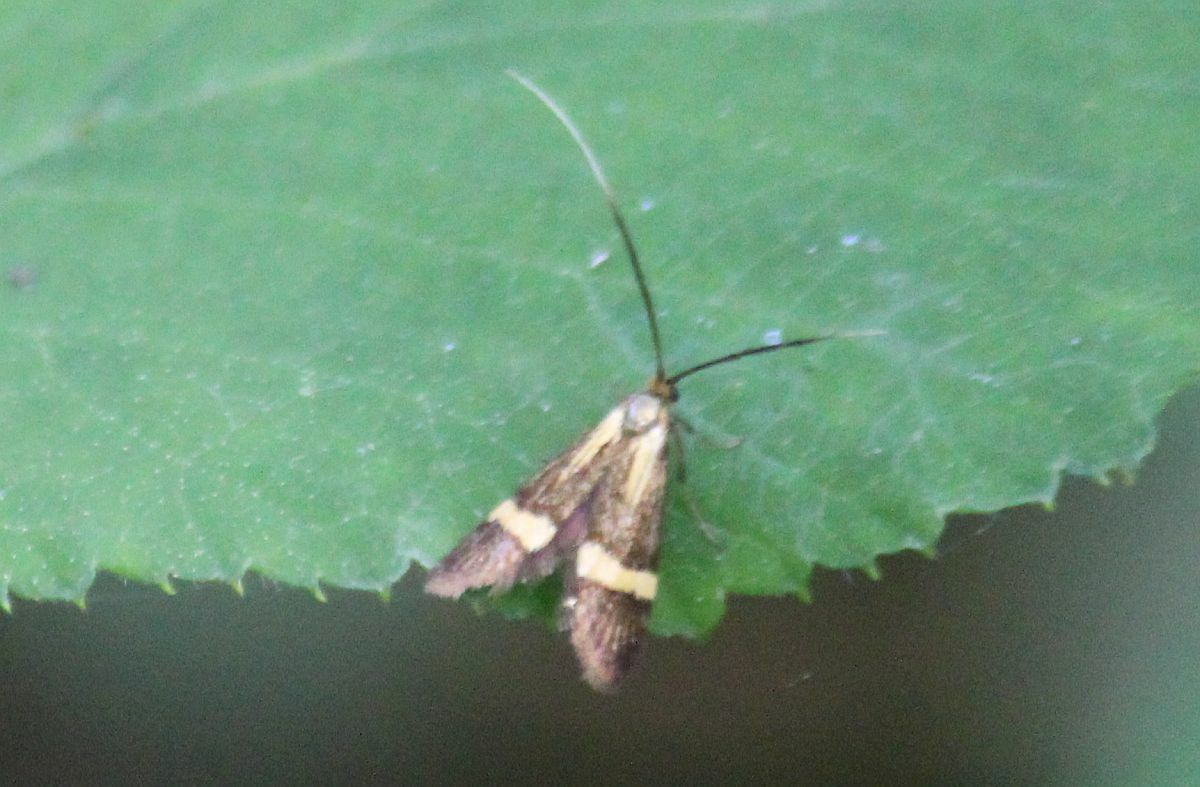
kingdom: Animalia
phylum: Arthropoda
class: Insecta
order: Lepidoptera
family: Adelidae
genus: Nemophora
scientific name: Nemophora degeerella
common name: Yellow-barred long-horn
